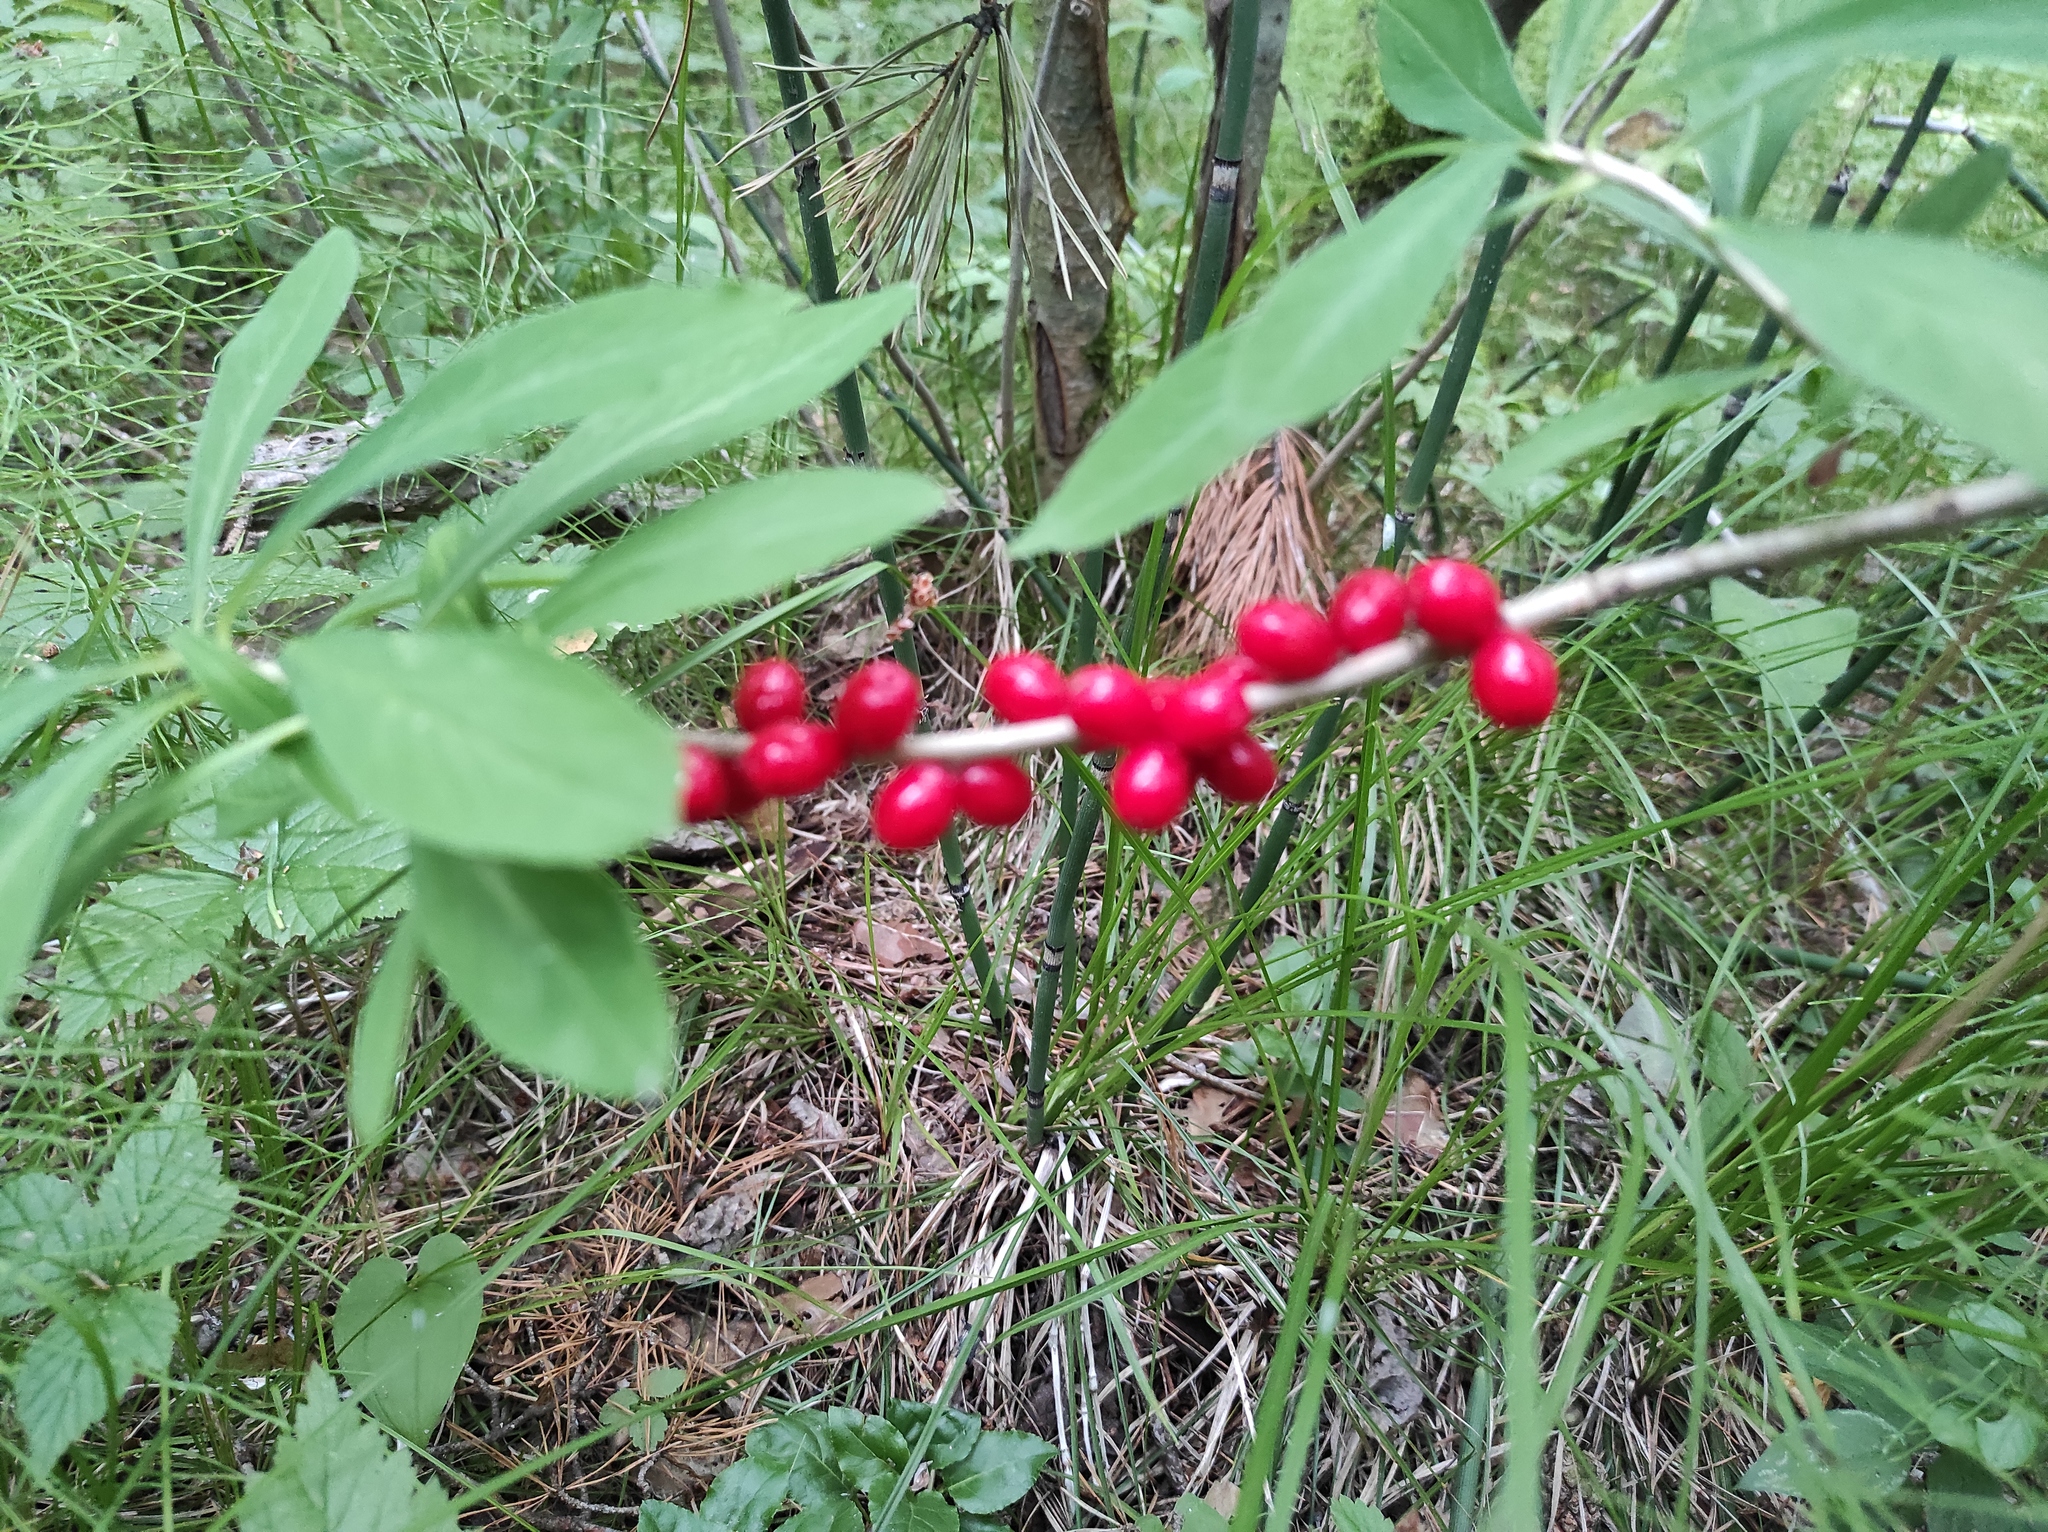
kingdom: Plantae
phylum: Tracheophyta
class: Magnoliopsida
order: Malvales
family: Thymelaeaceae
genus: Daphne
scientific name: Daphne mezereum
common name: Mezereon
